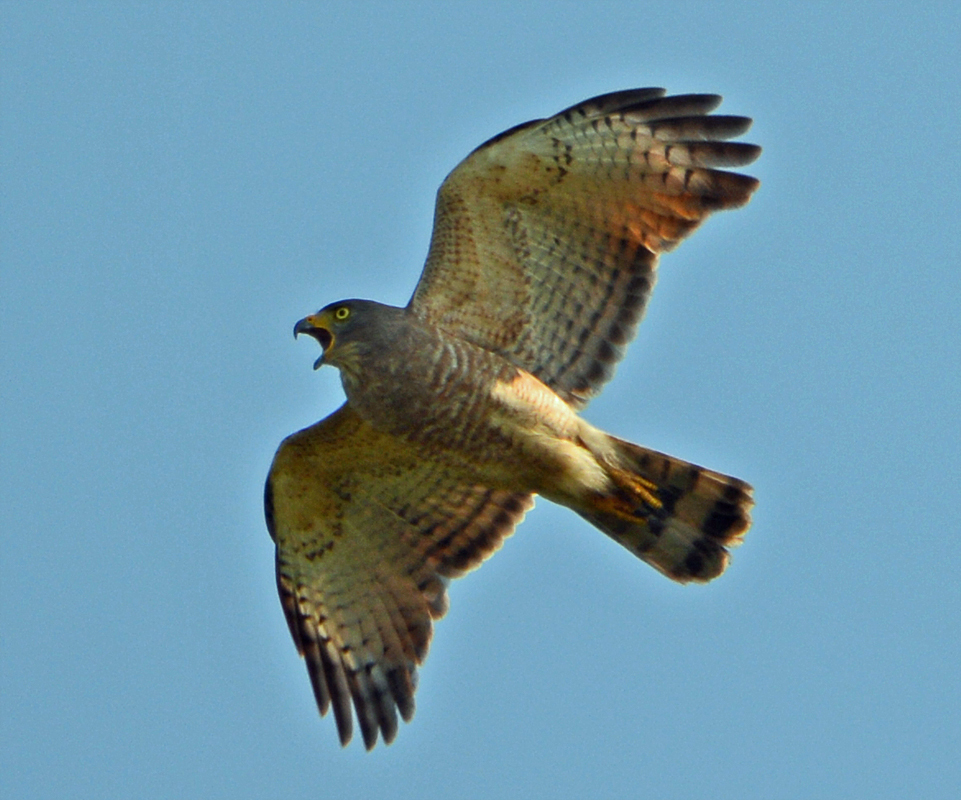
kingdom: Animalia
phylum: Chordata
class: Aves
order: Accipitriformes
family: Accipitridae
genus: Rupornis
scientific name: Rupornis magnirostris
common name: Roadside hawk
